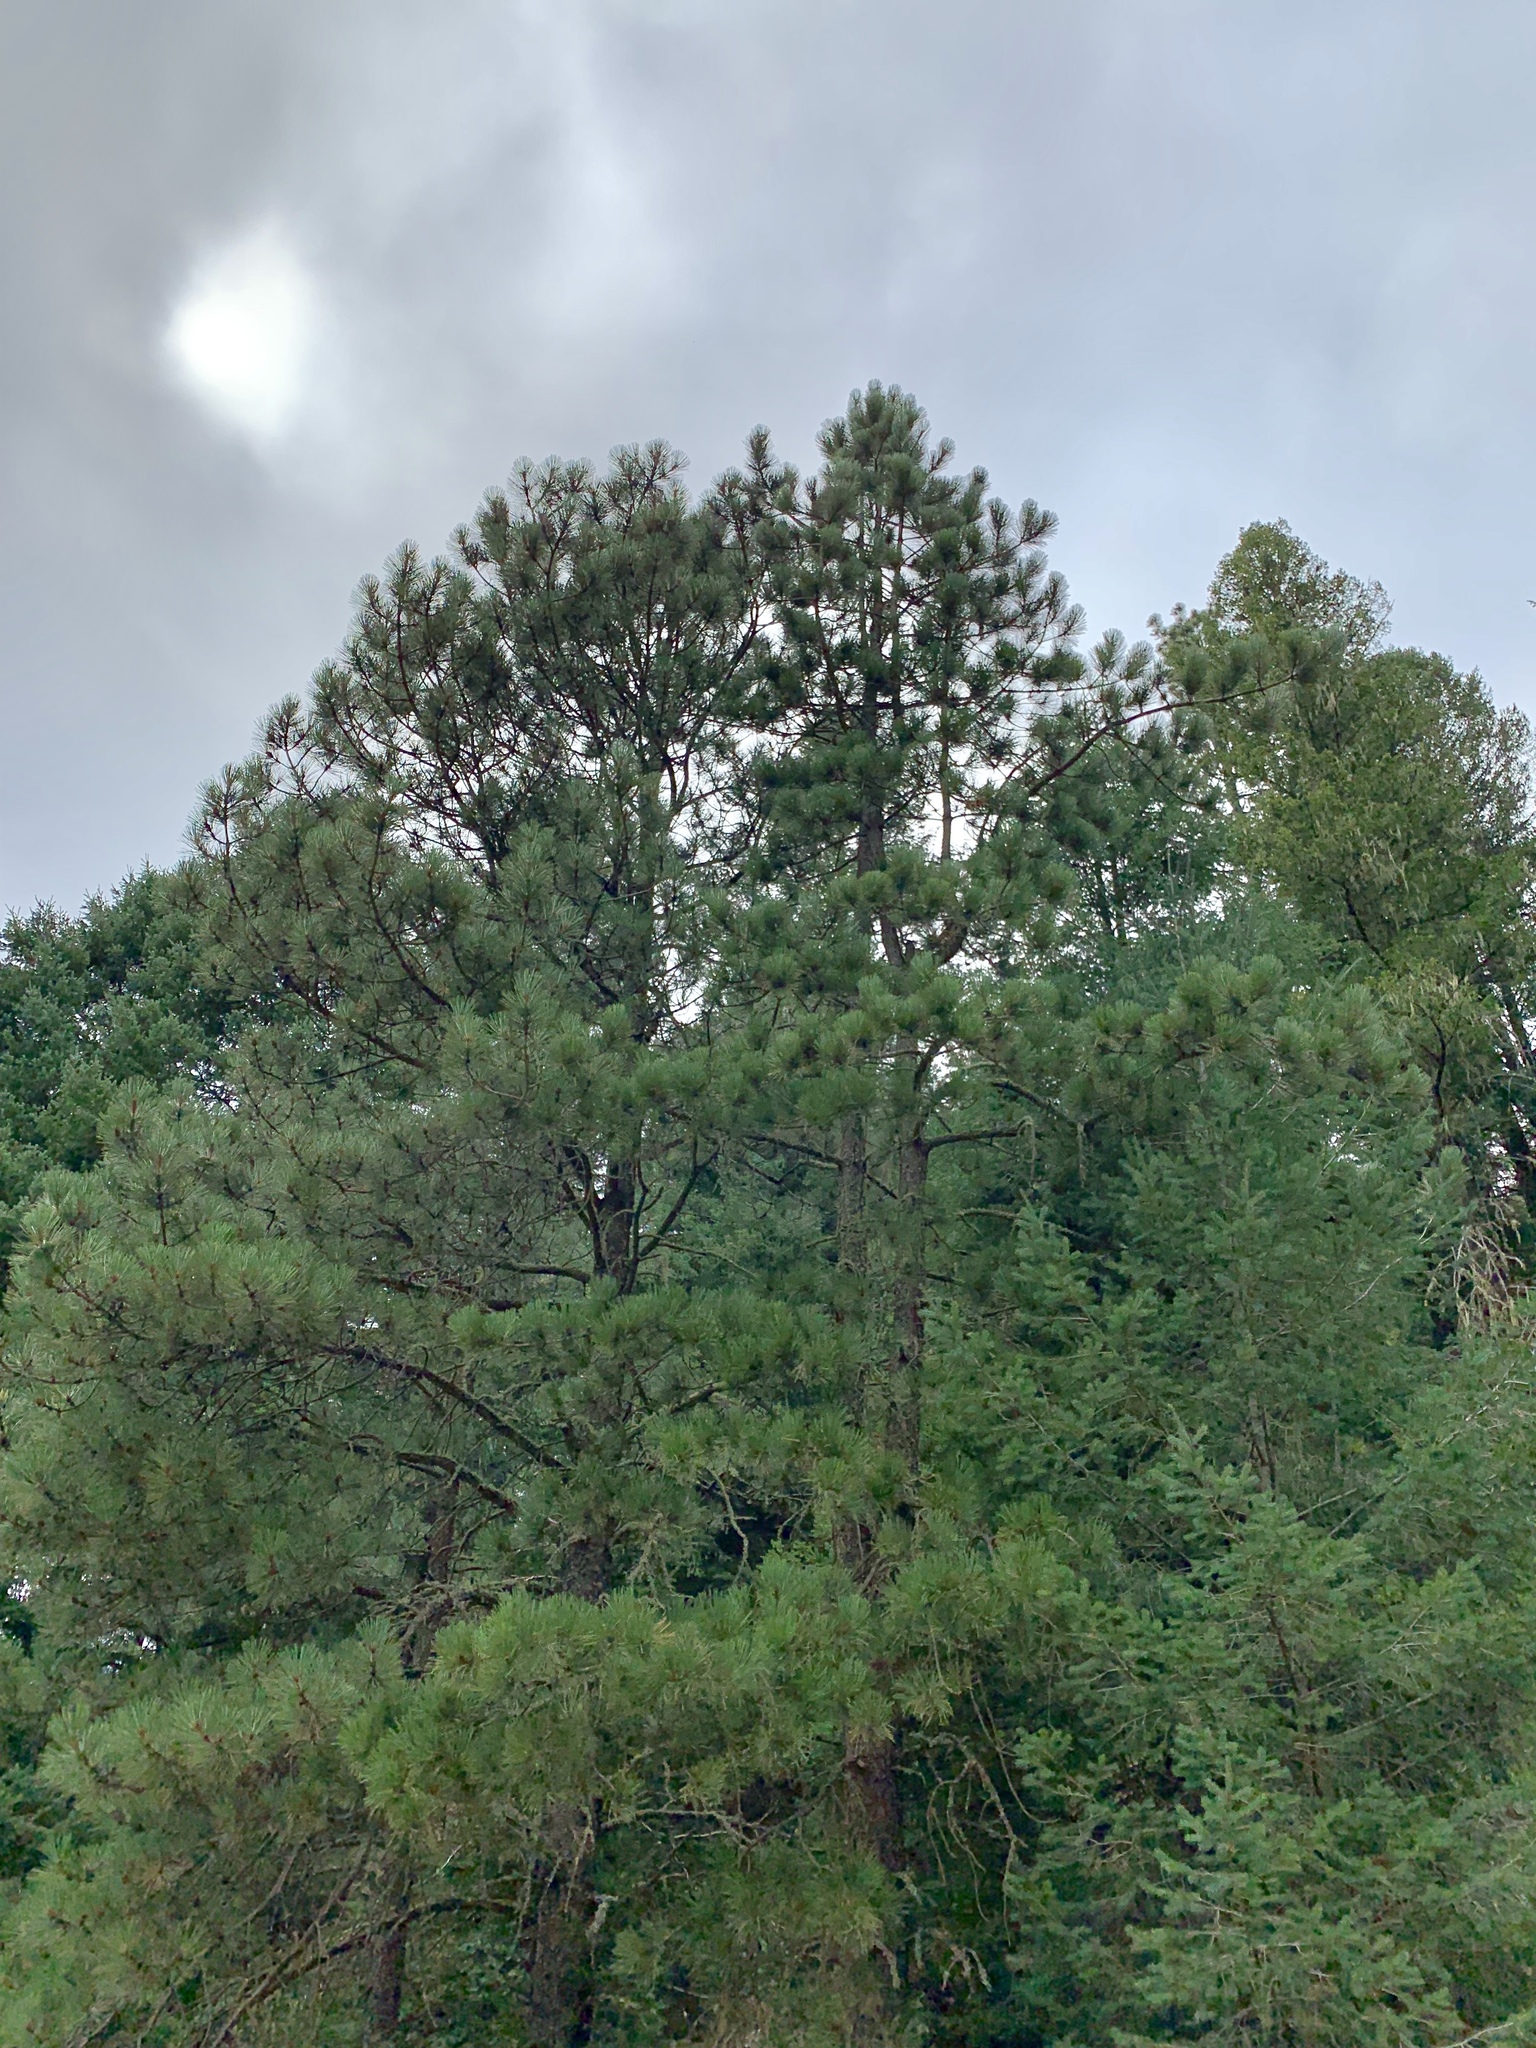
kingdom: Plantae
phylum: Tracheophyta
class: Pinopsida
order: Pinales
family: Pinaceae
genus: Pinus
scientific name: Pinus ponderosa
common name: Western yellow-pine
